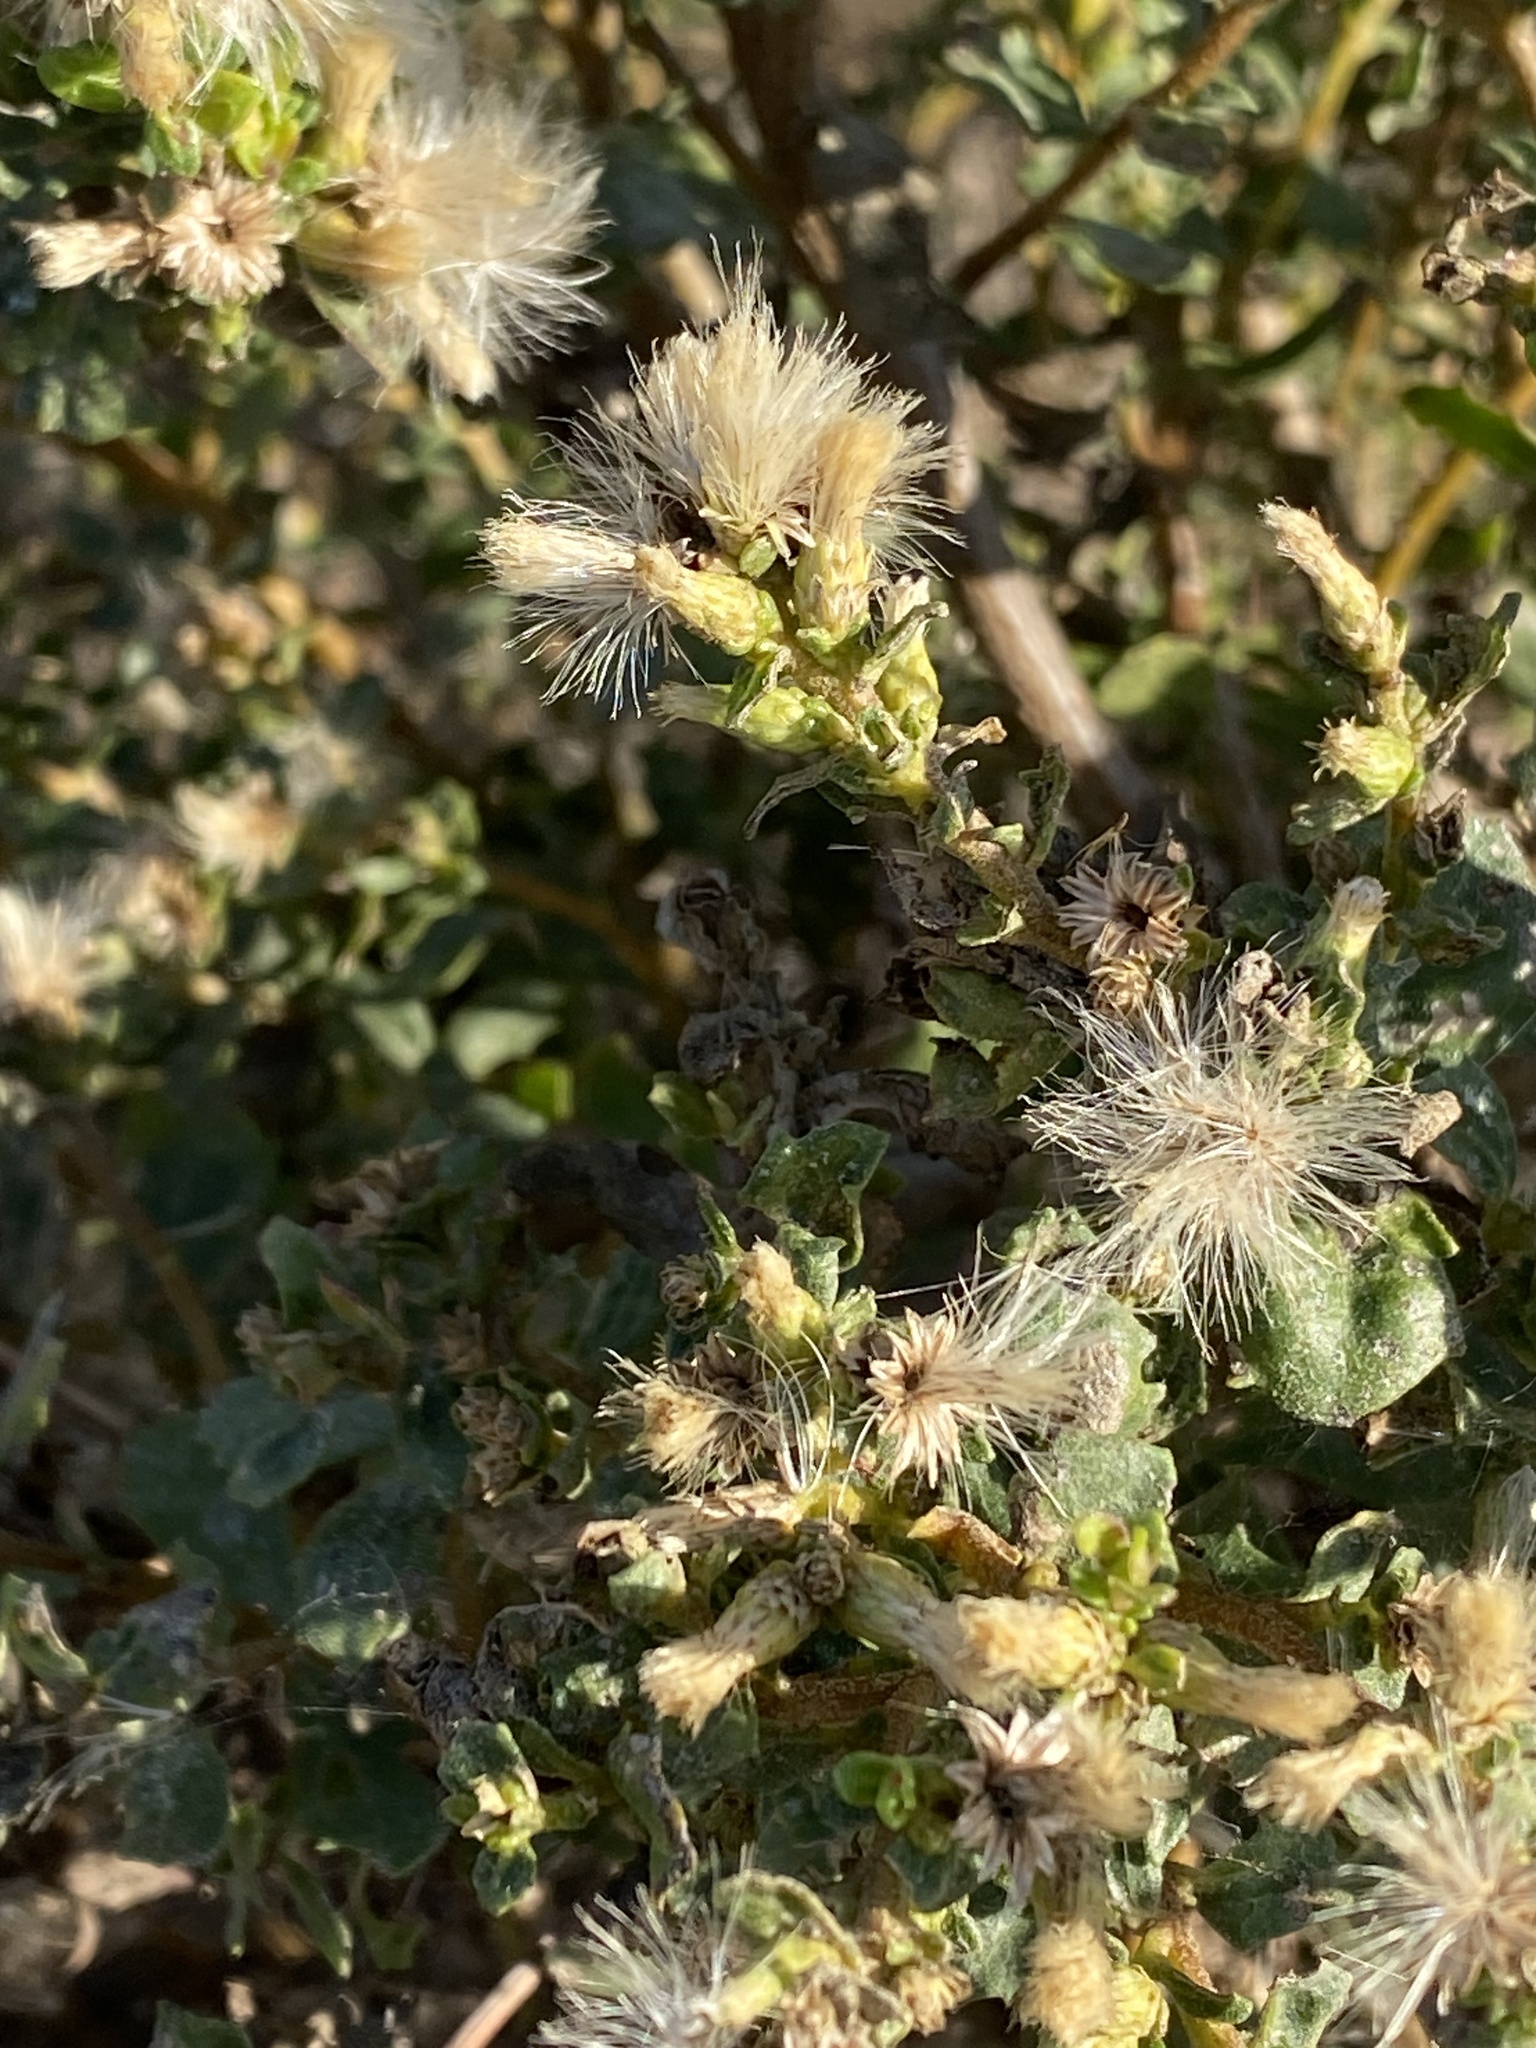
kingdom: Plantae
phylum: Tracheophyta
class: Magnoliopsida
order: Asterales
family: Asteraceae
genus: Baccharis
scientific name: Baccharis pilularis
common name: Coyotebrush
